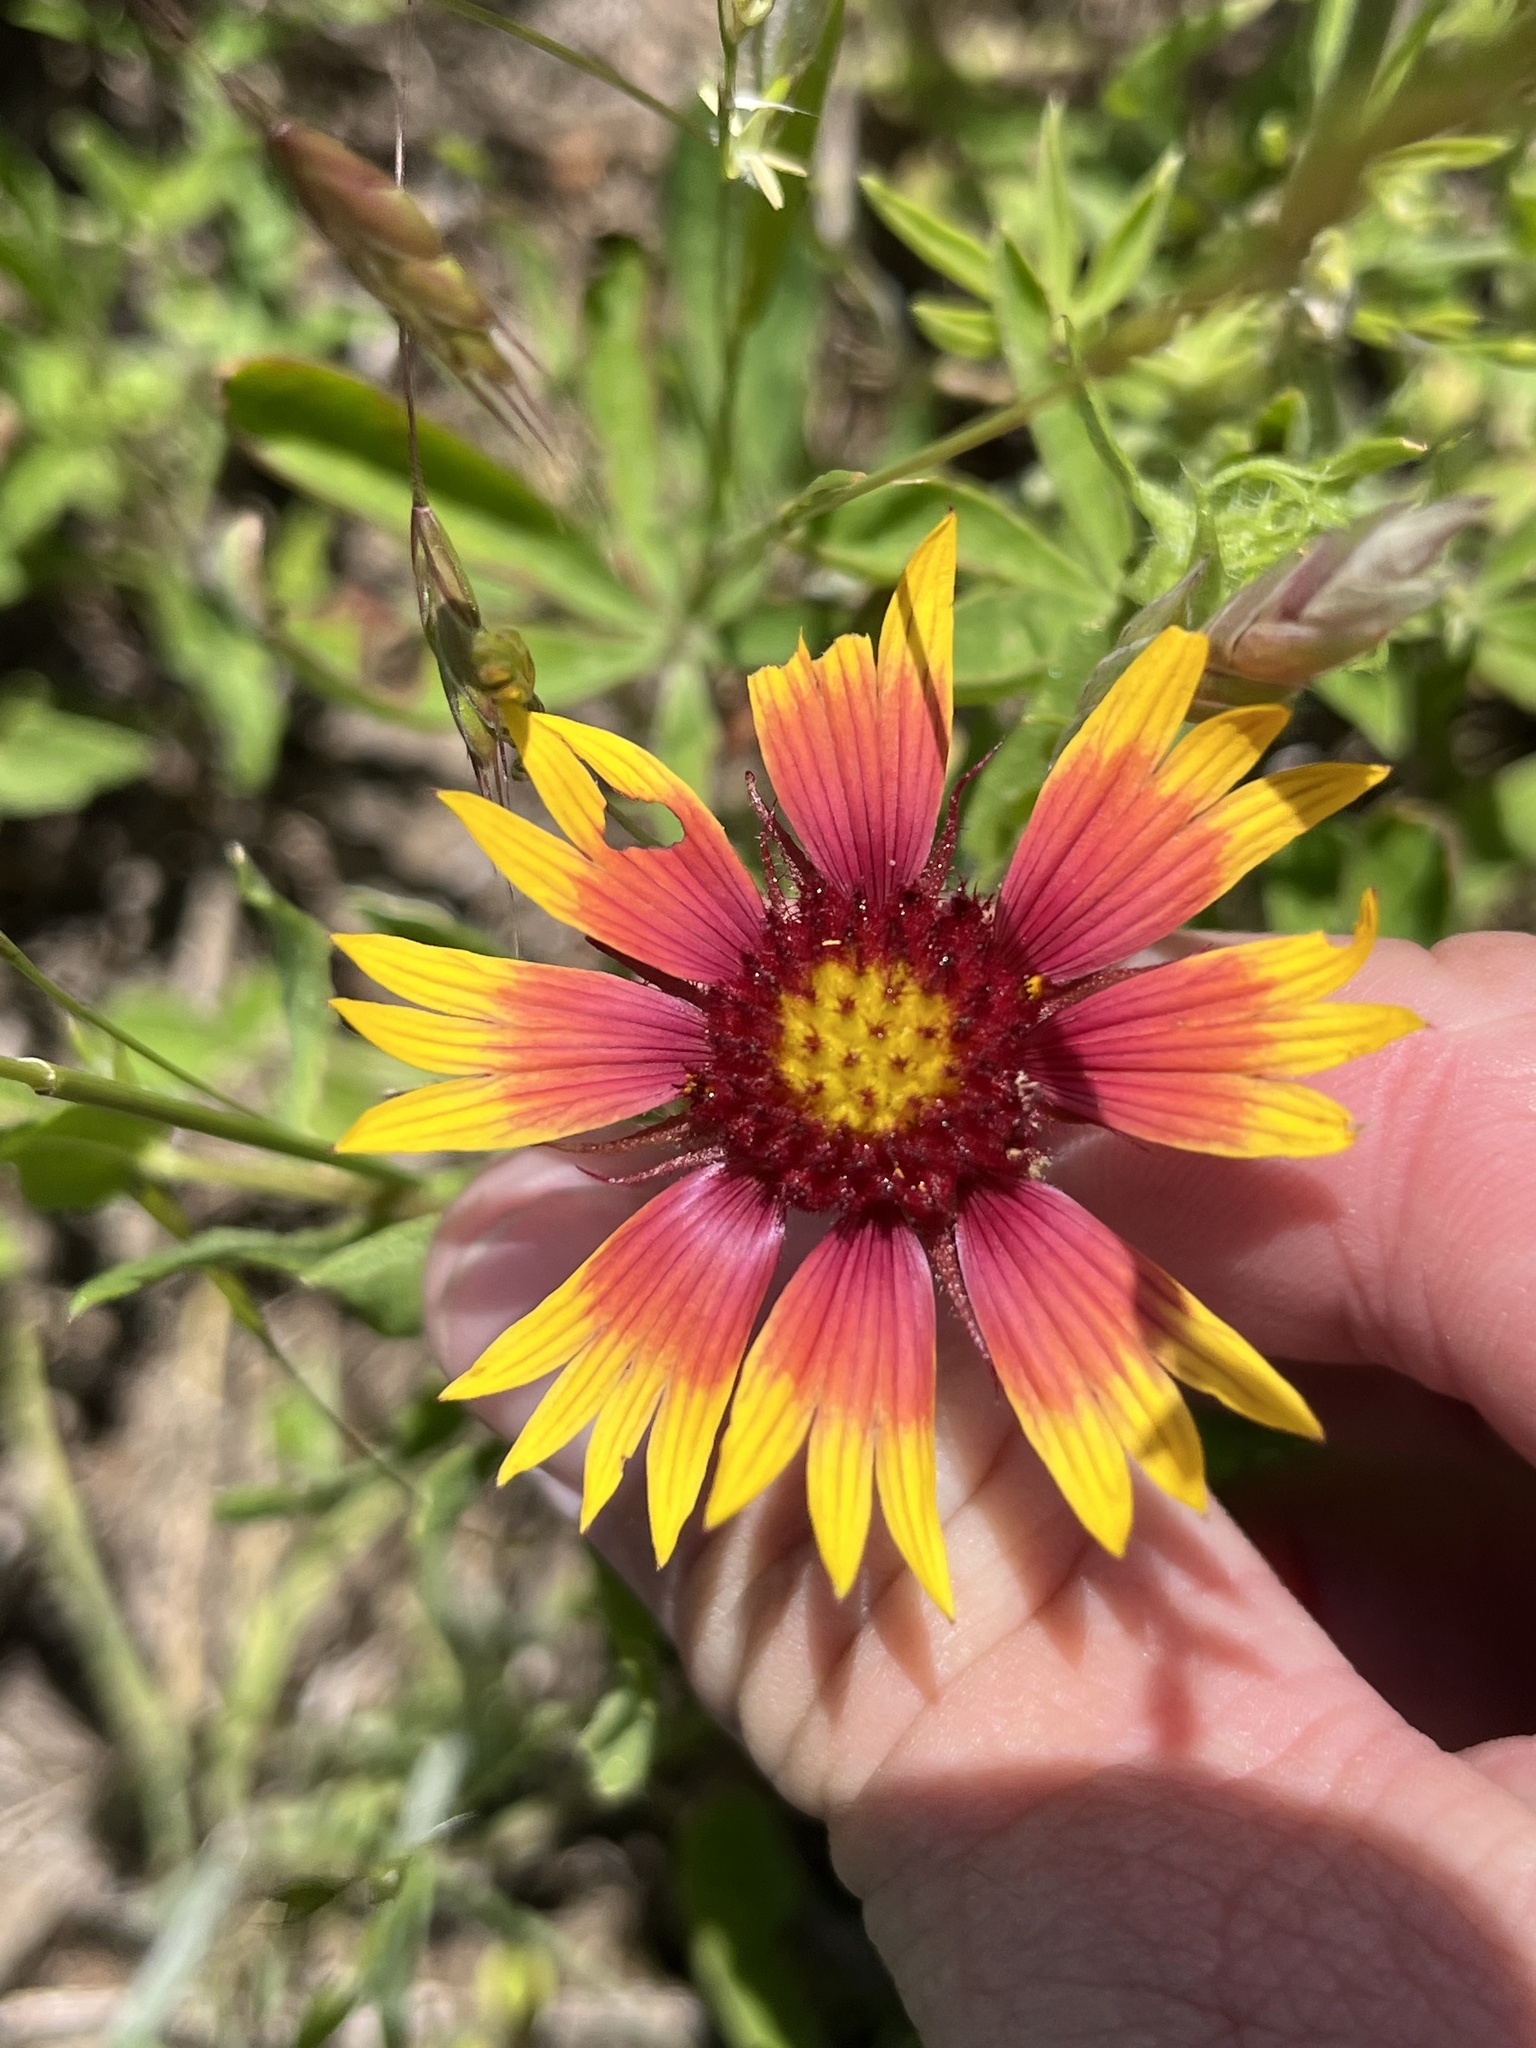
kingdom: Plantae
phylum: Tracheophyta
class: Magnoliopsida
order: Asterales
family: Asteraceae
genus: Gaillardia
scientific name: Gaillardia pulchella
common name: Firewheel
